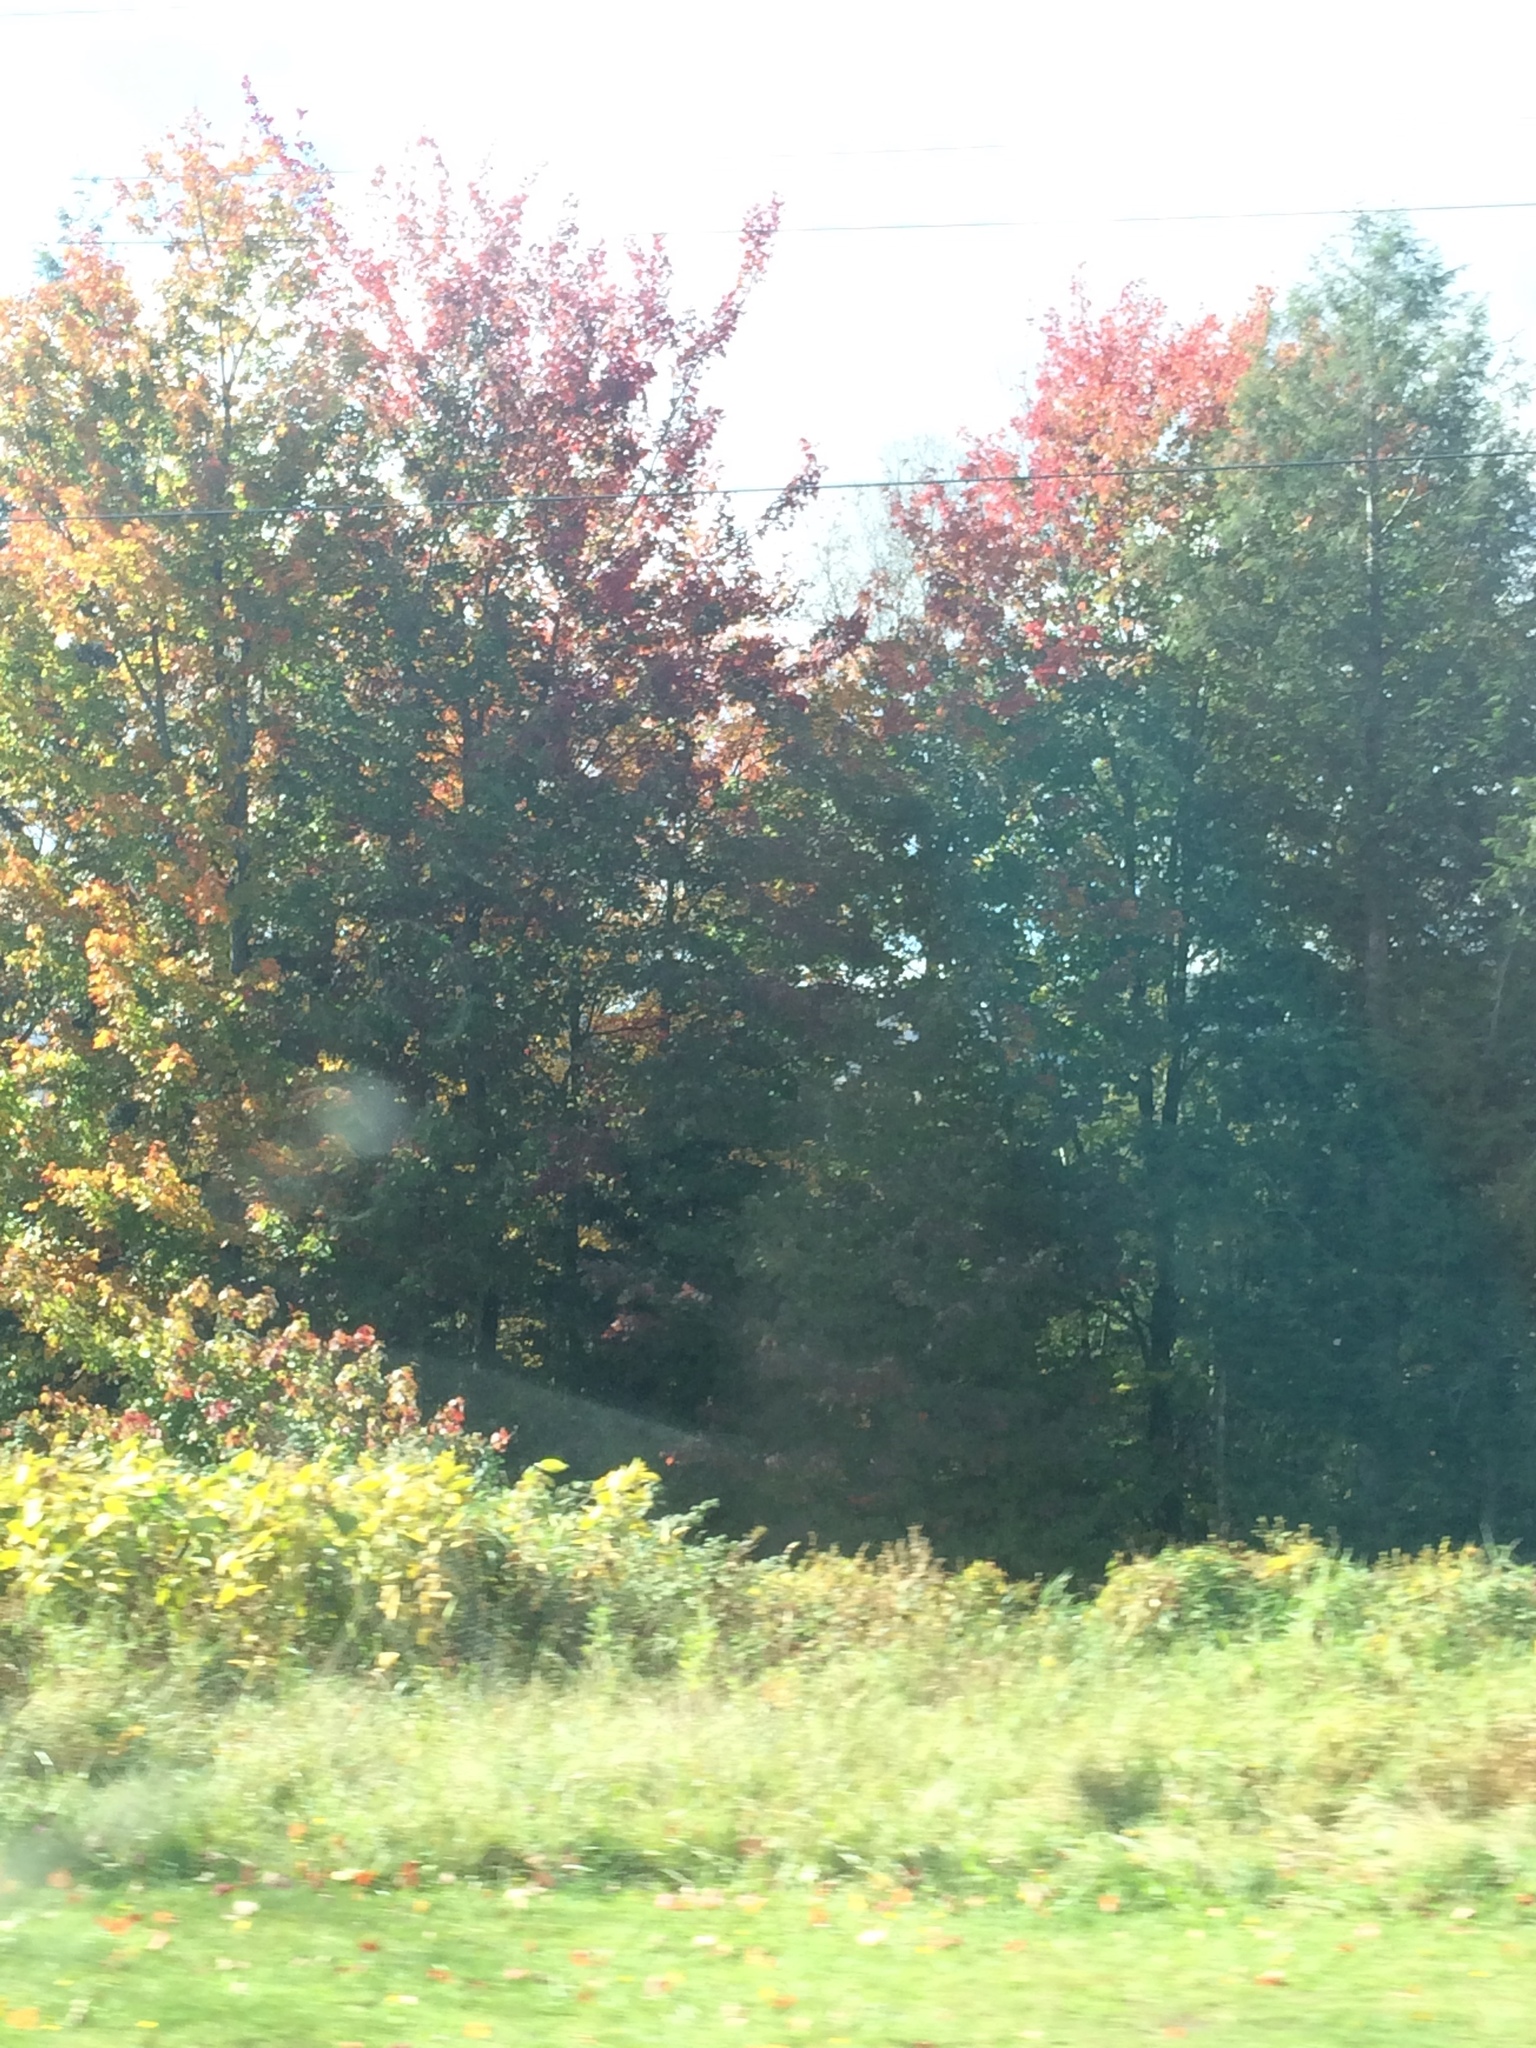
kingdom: Plantae
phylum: Tracheophyta
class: Magnoliopsida
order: Sapindales
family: Sapindaceae
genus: Acer
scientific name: Acer rubrum
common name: Red maple
